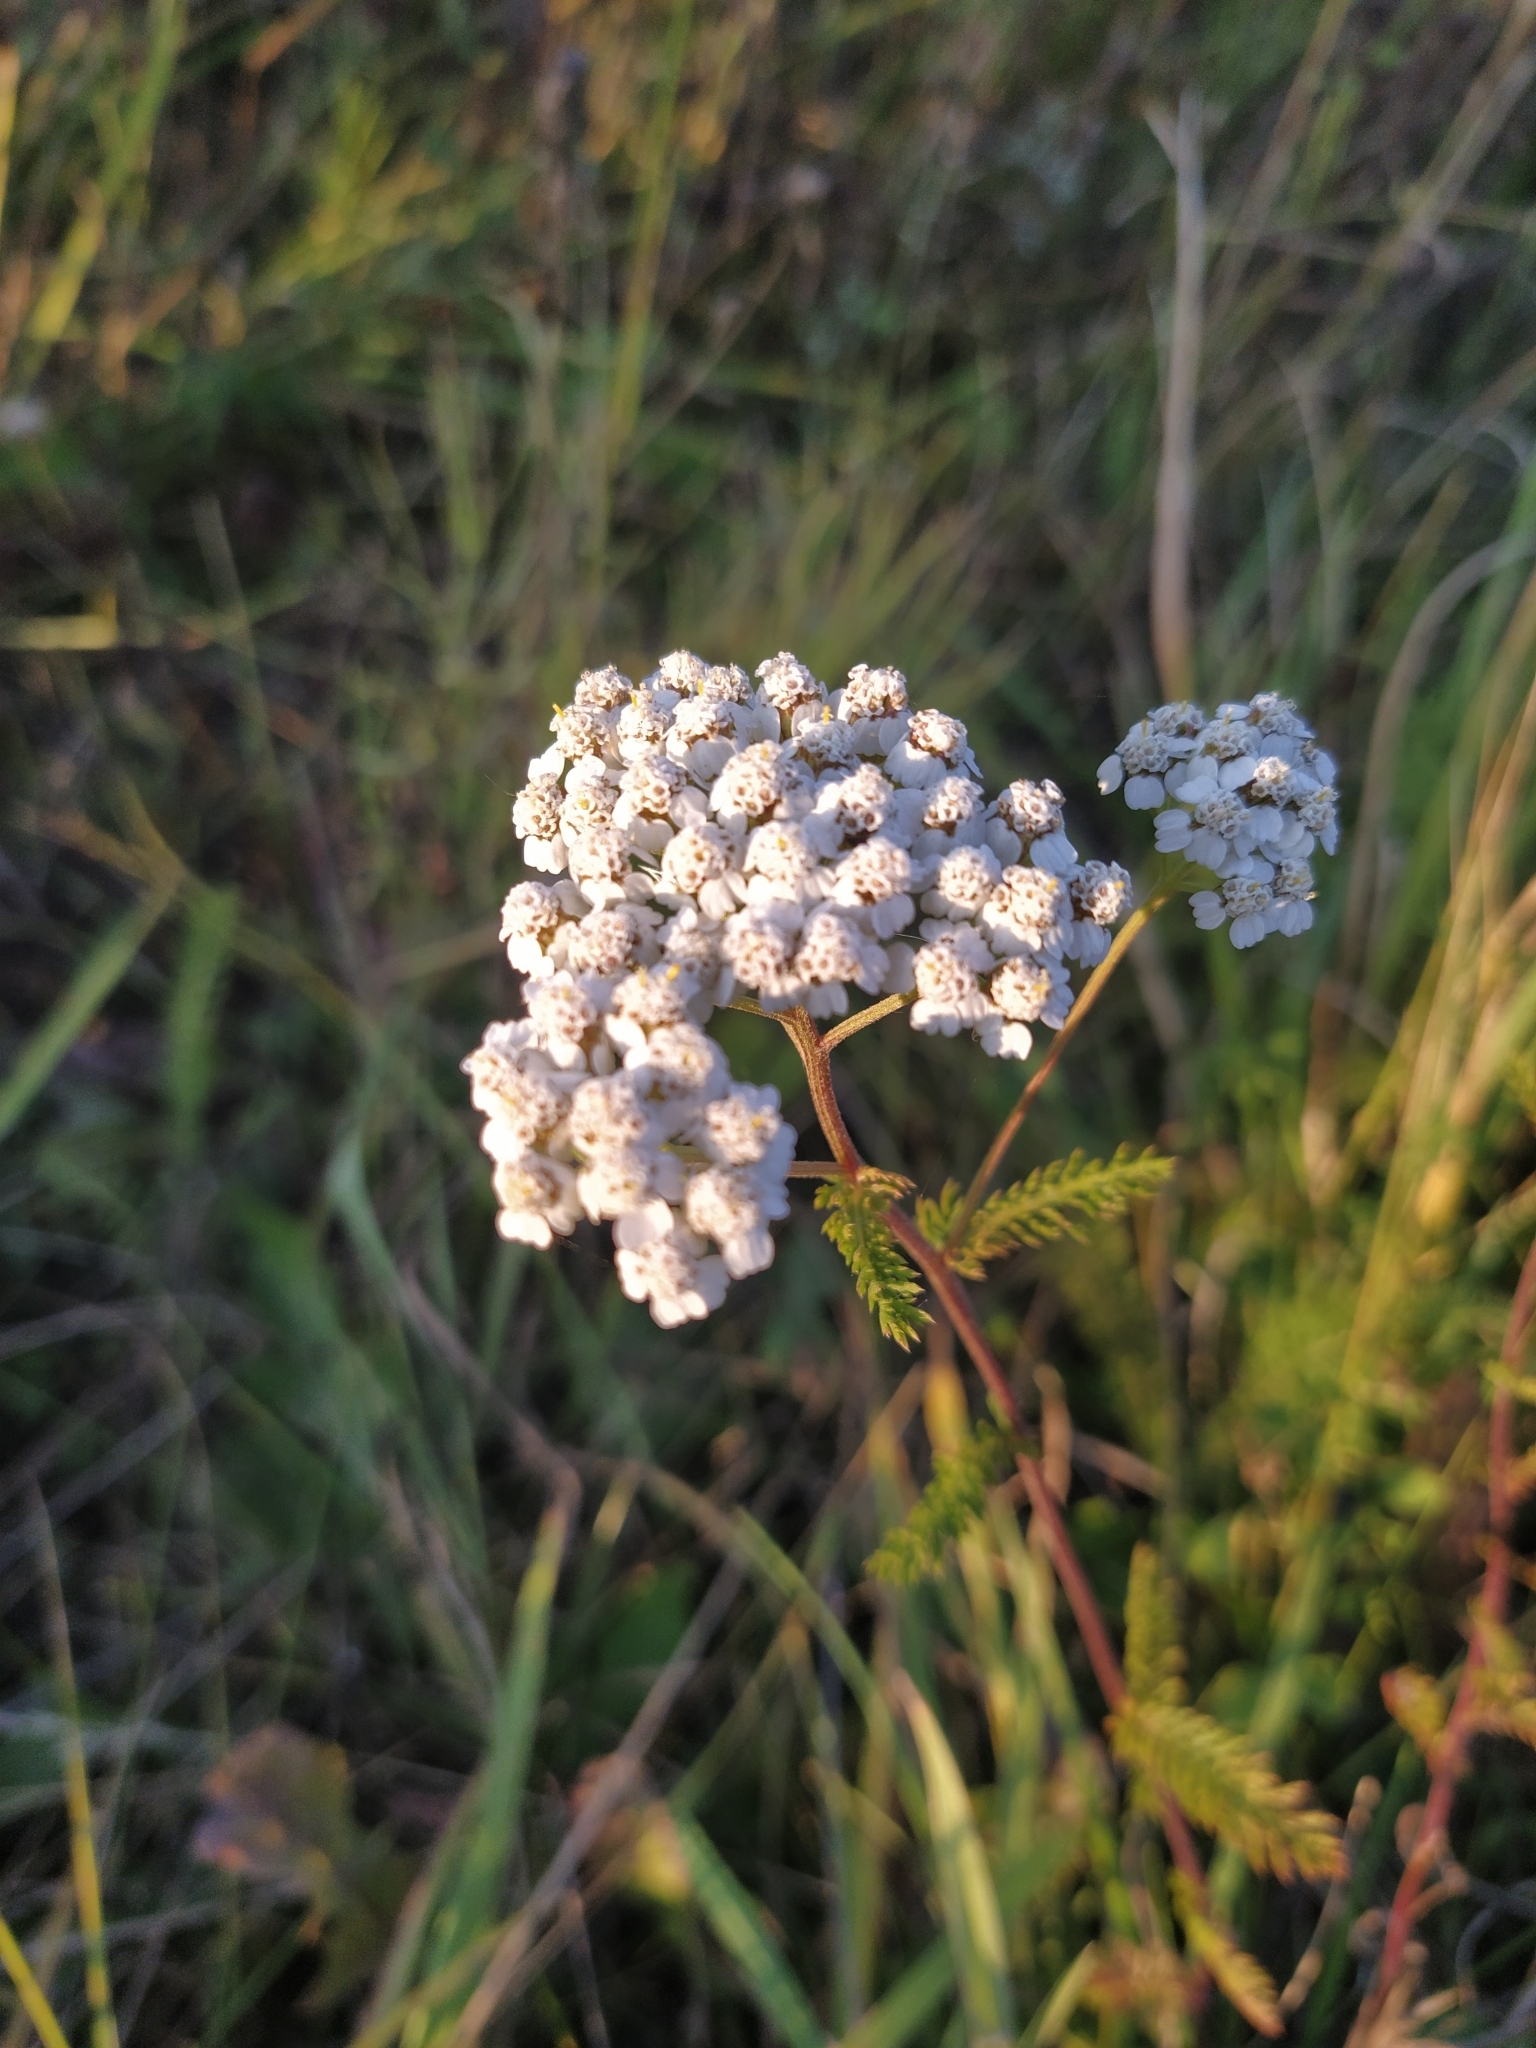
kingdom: Plantae
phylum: Tracheophyta
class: Magnoliopsida
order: Asterales
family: Asteraceae
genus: Achillea
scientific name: Achillea millefolium
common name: Yarrow
